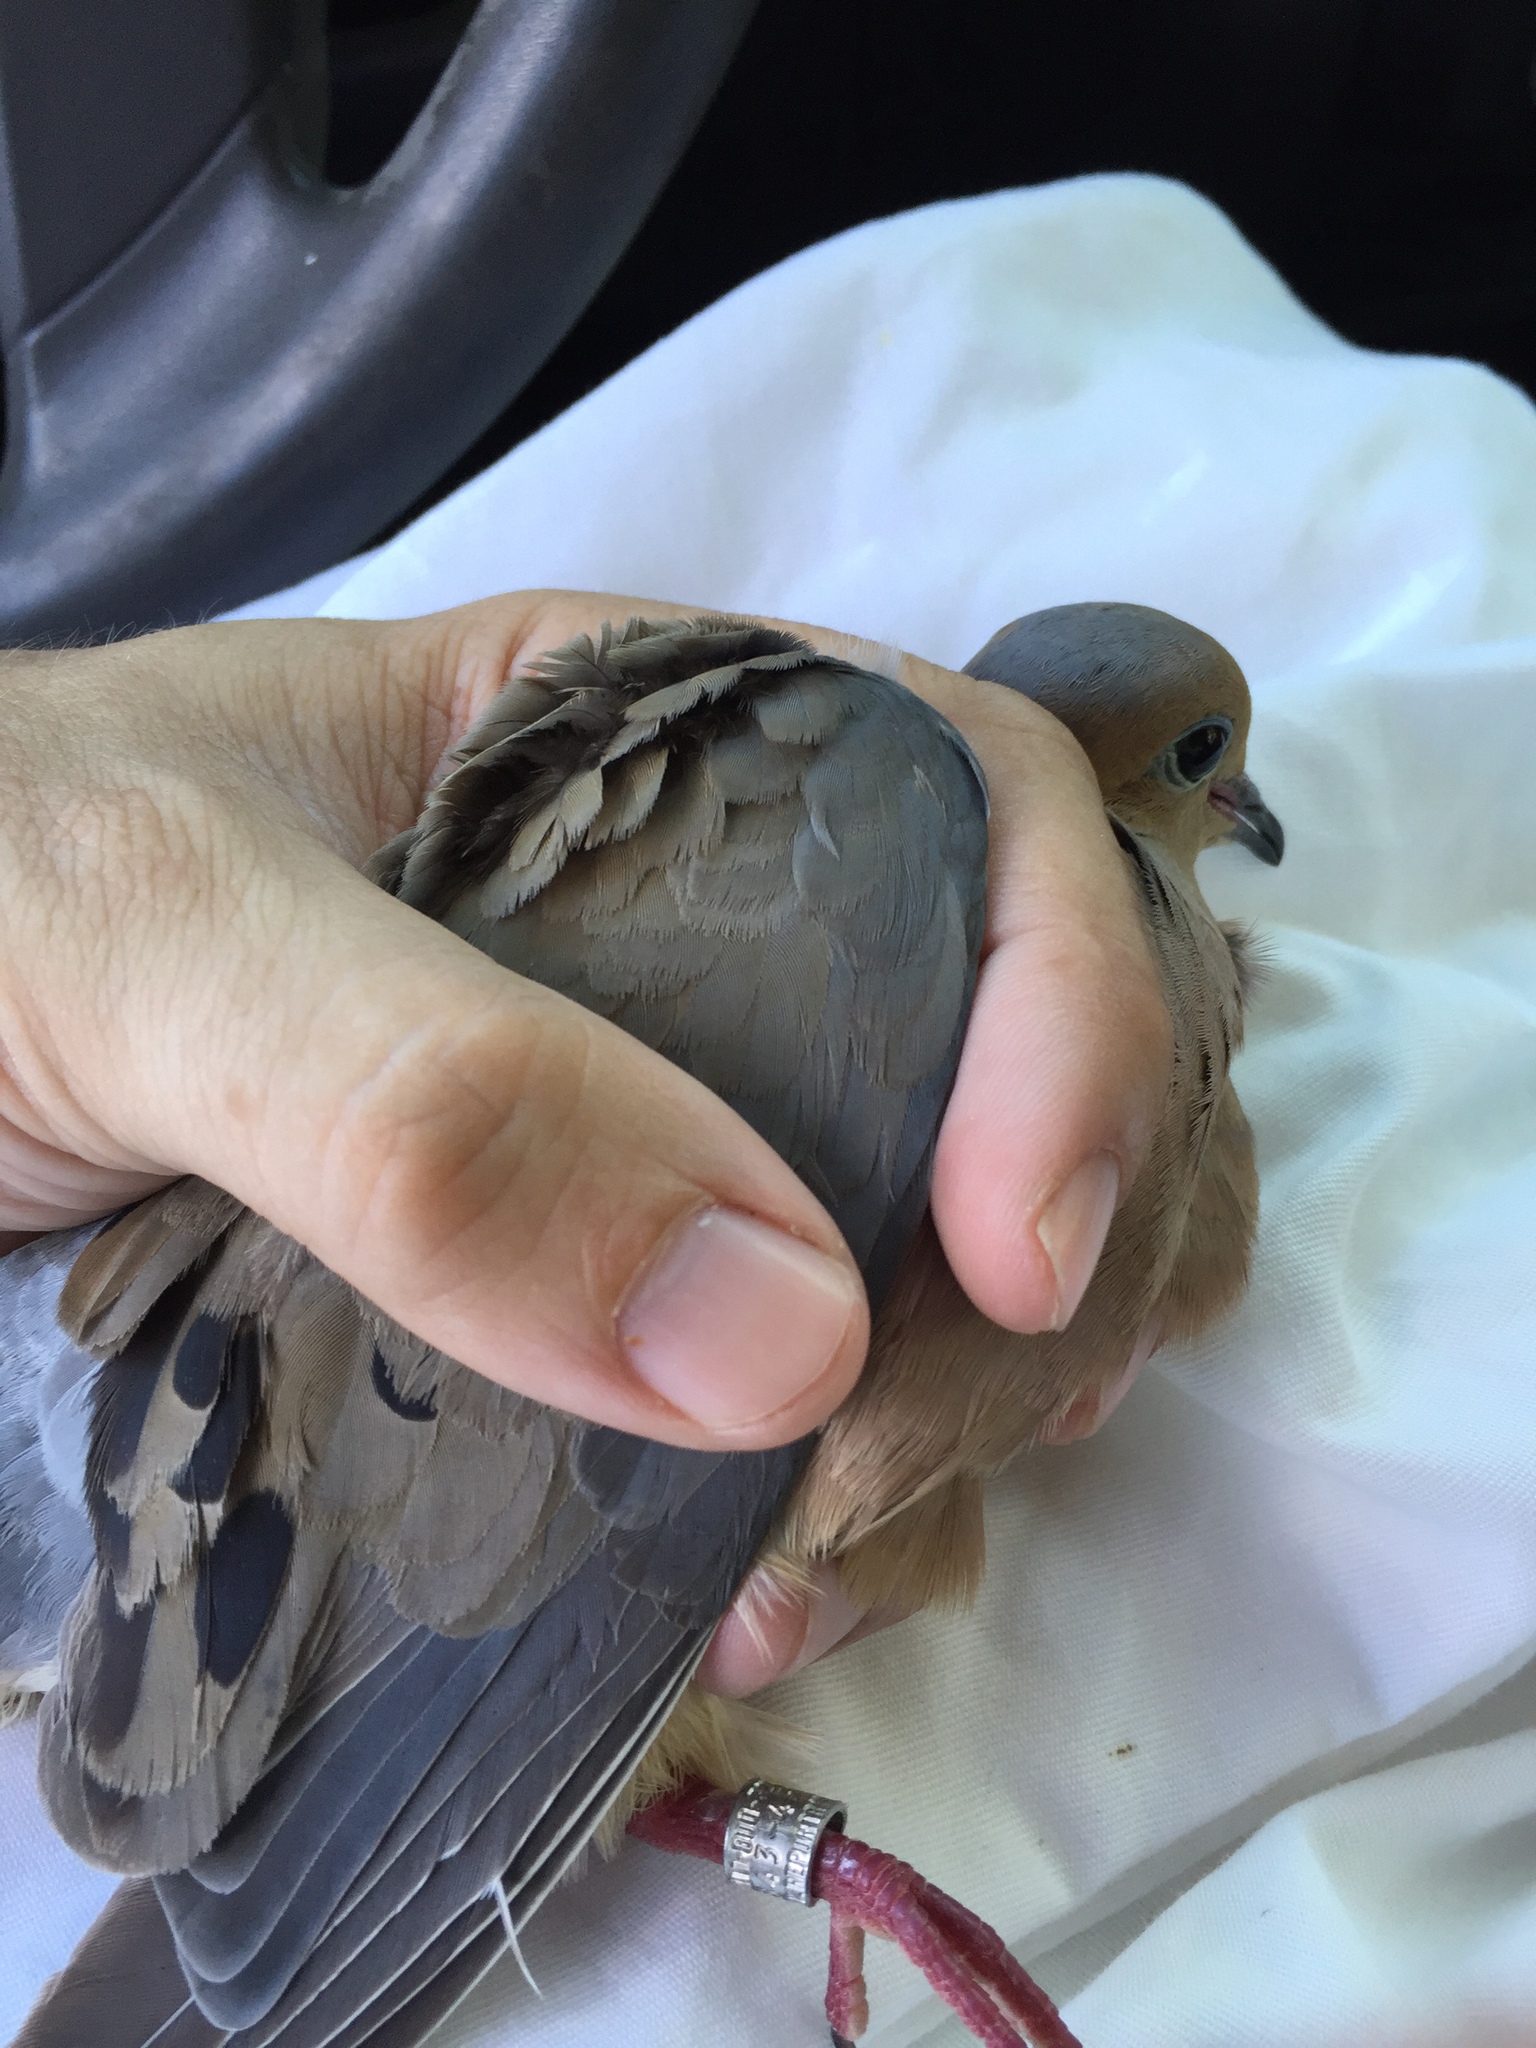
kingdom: Animalia
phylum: Chordata
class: Aves
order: Columbiformes
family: Columbidae
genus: Zenaida
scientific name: Zenaida macroura
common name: Mourning dove
